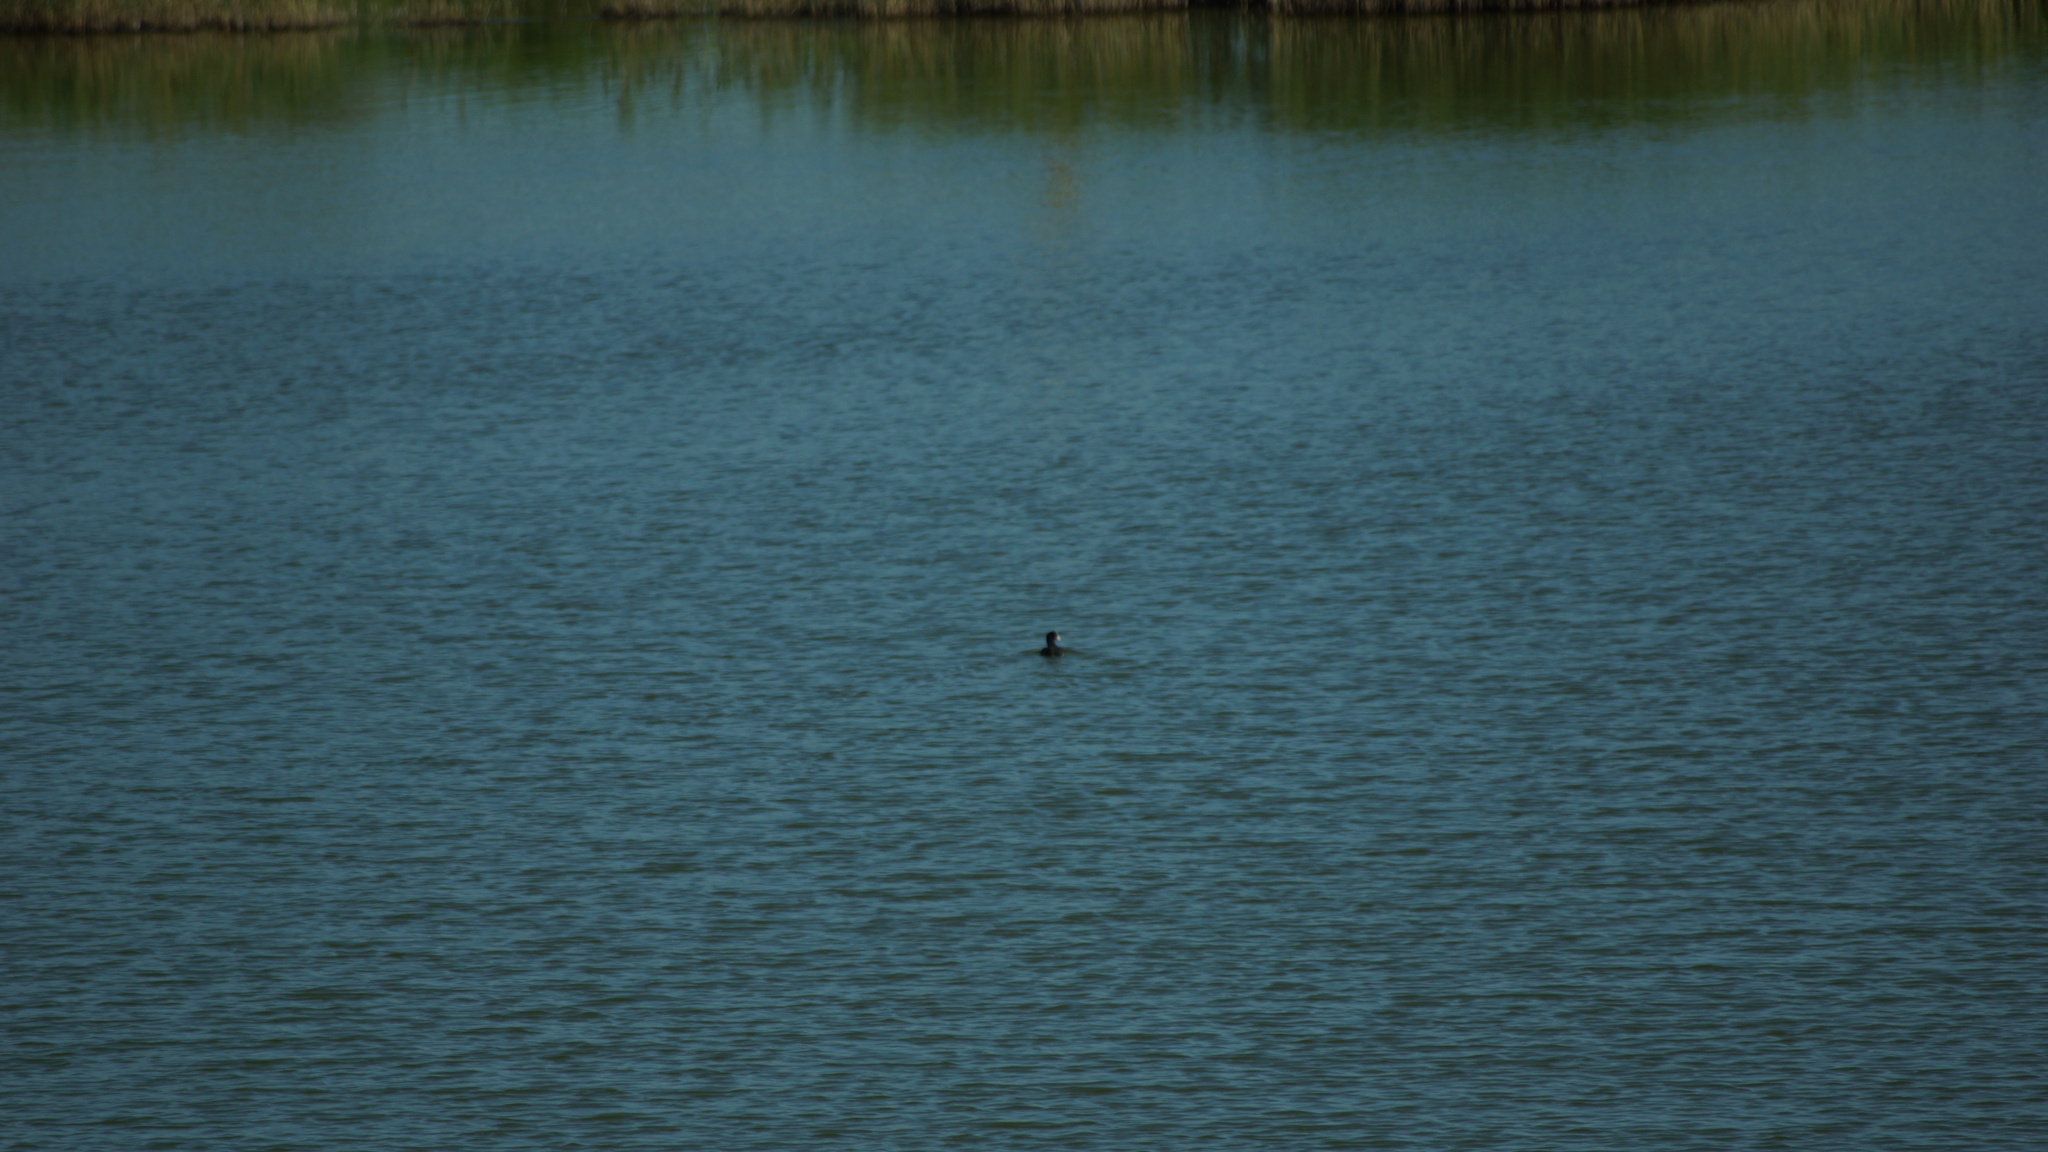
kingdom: Animalia
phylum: Chordata
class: Aves
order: Gruiformes
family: Rallidae
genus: Fulica
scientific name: Fulica atra
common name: Eurasian coot
